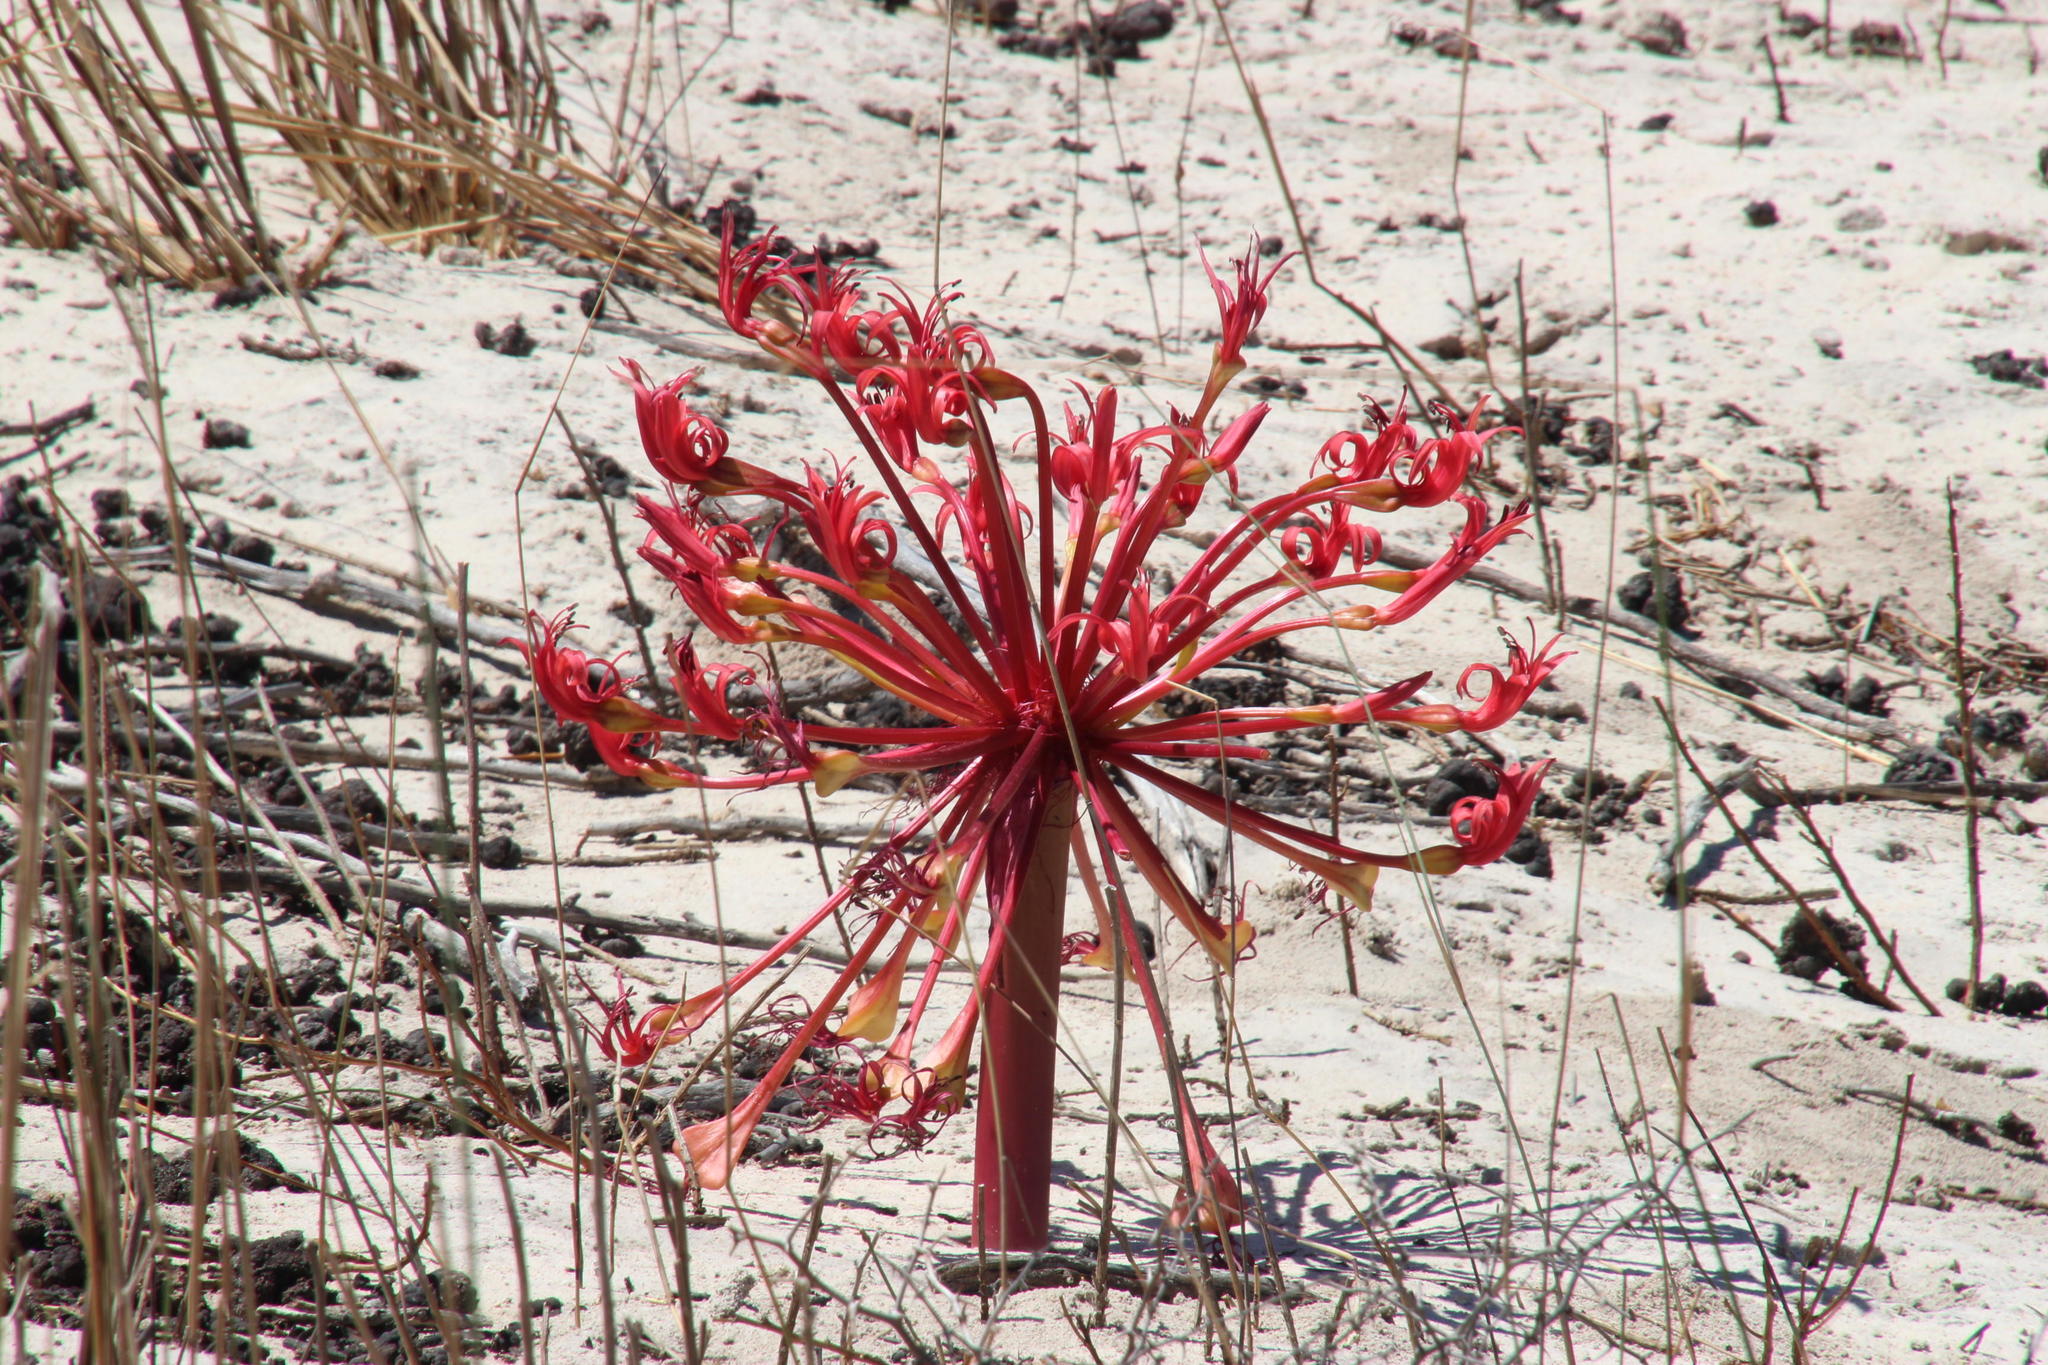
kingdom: Plantae
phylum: Tracheophyta
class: Liliopsida
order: Asparagales
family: Amaryllidaceae
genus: Brunsvigia
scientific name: Brunsvigia orientalis
